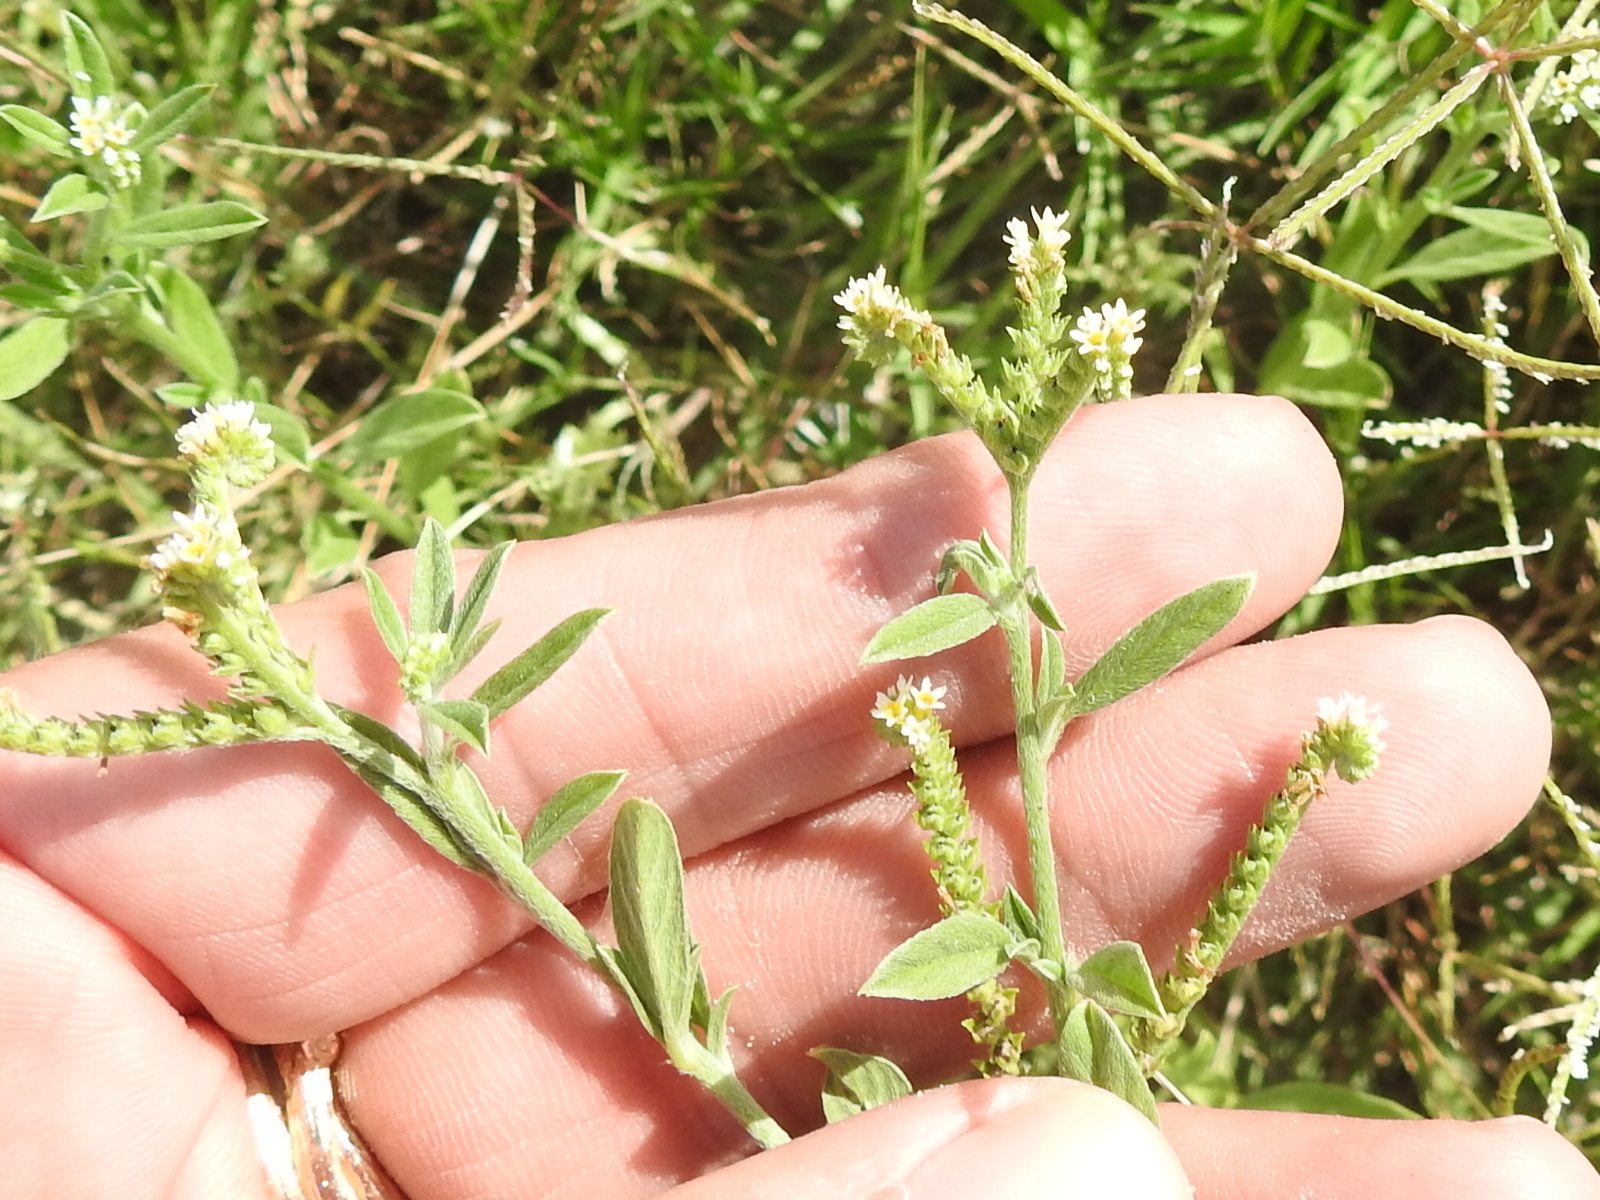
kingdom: Plantae
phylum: Tracheophyta
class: Magnoliopsida
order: Boraginales
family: Heliotropiaceae
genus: Euploca
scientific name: Euploca procumbens
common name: Fourspike heliotrope
